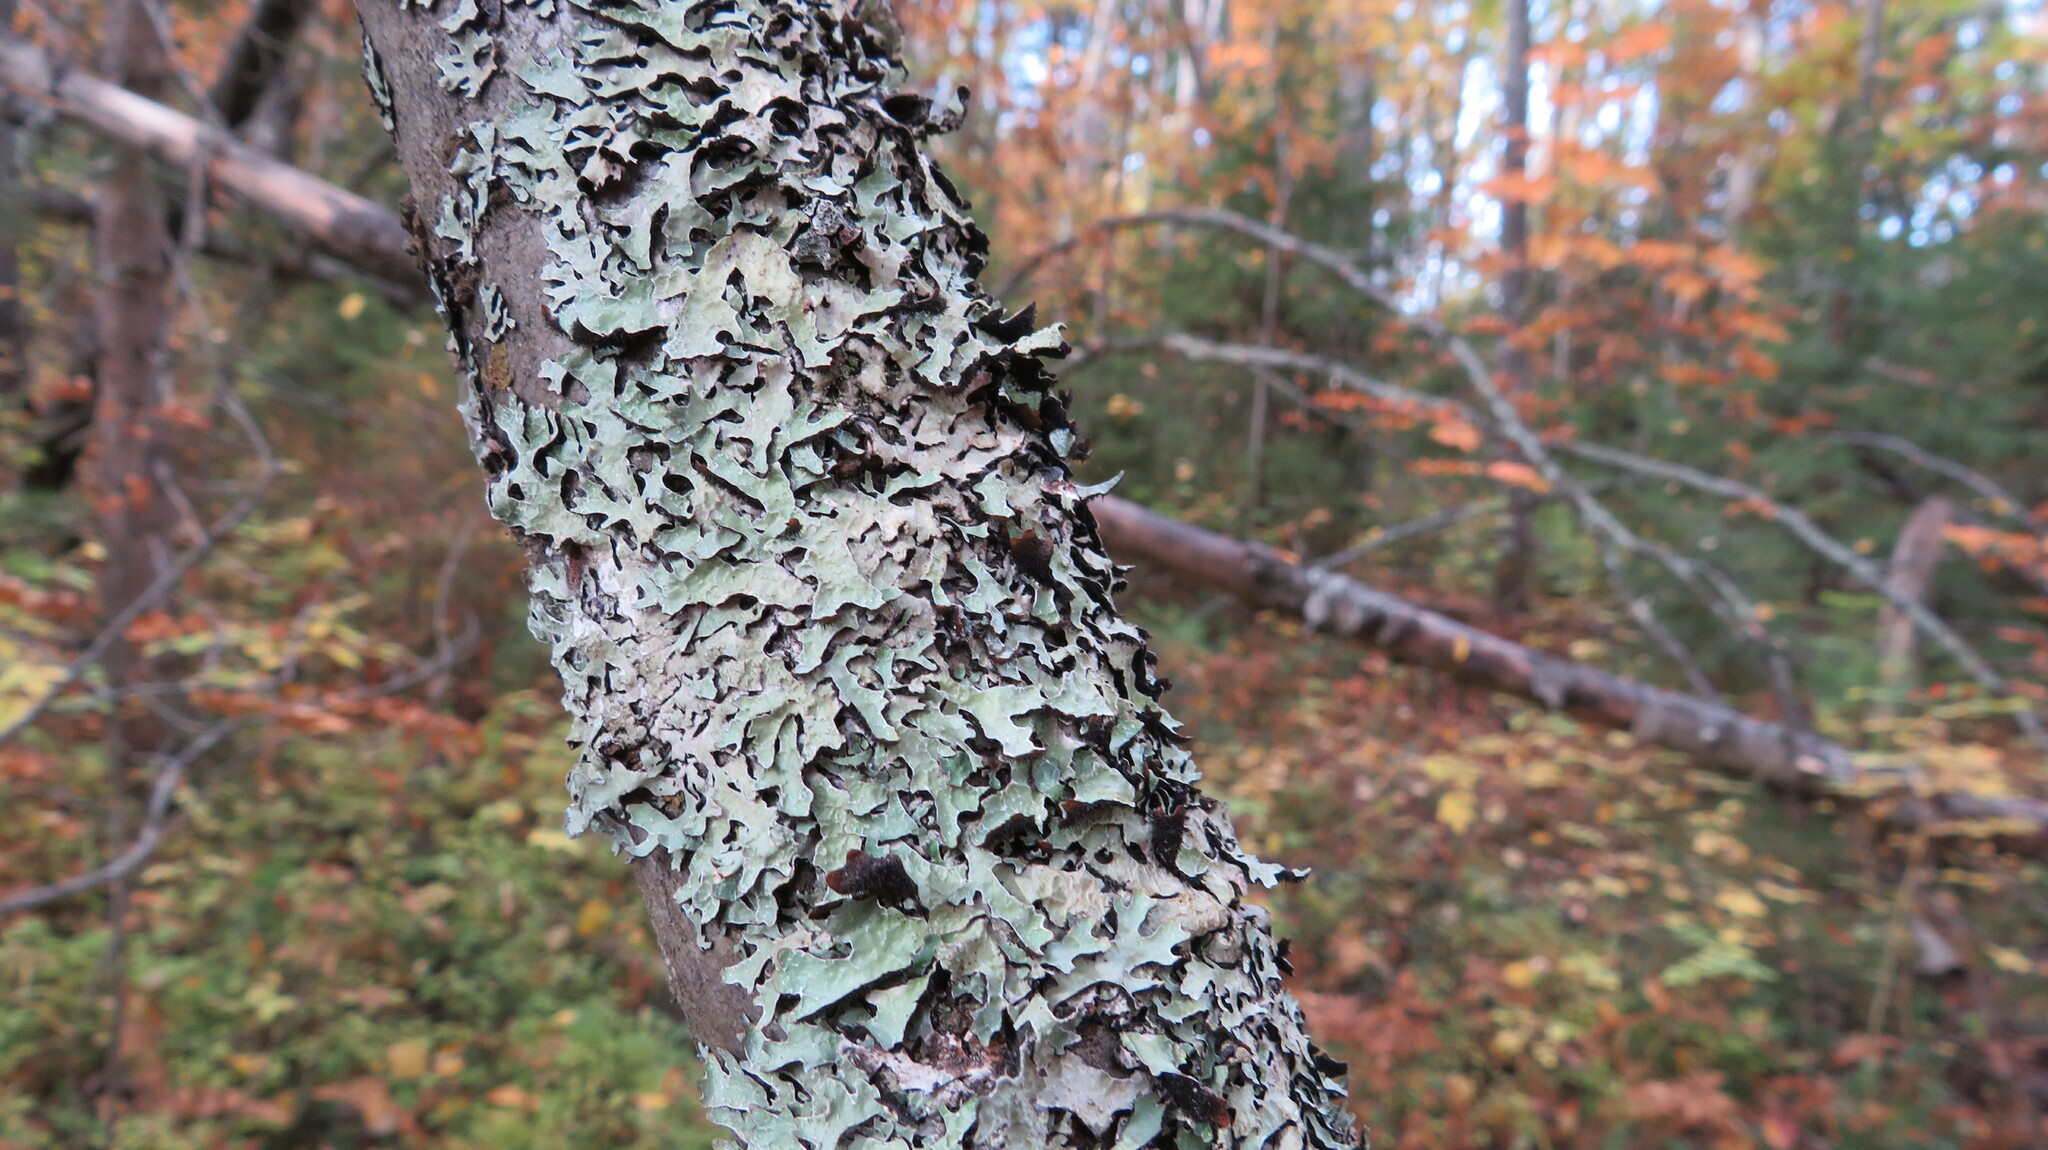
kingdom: Fungi
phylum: Ascomycota
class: Lecanoromycetes
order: Lecanorales
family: Parmeliaceae
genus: Parmelia
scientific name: Parmelia sulcata
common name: Netted shield lichen
